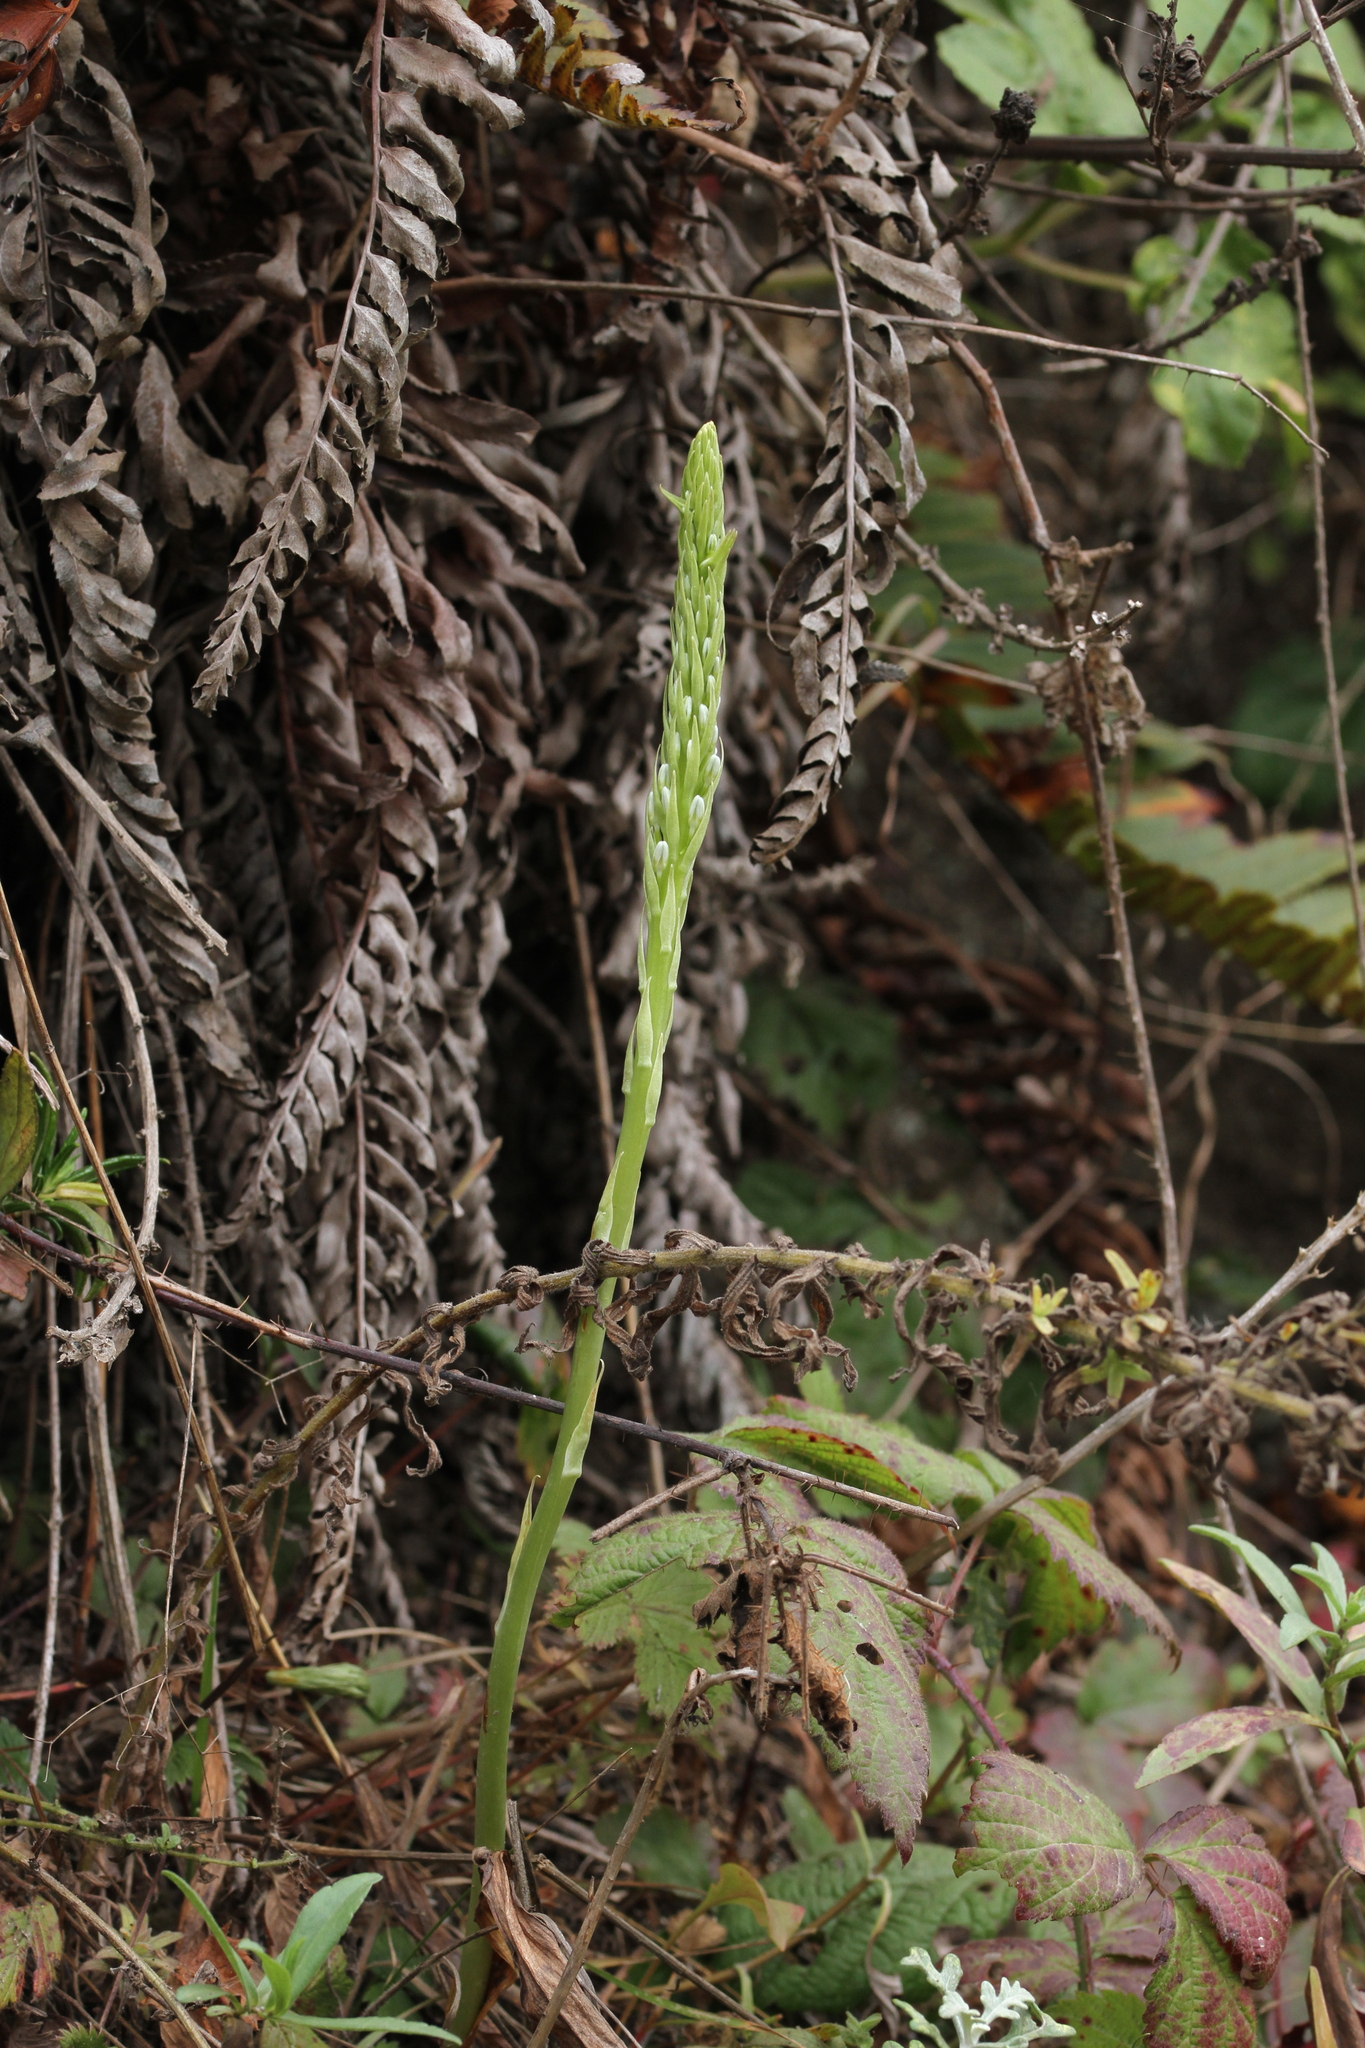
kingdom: Plantae
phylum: Tracheophyta
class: Liliopsida
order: Asparagales
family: Orchidaceae
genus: Platanthera
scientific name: Platanthera elegans
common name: Coast piperia
